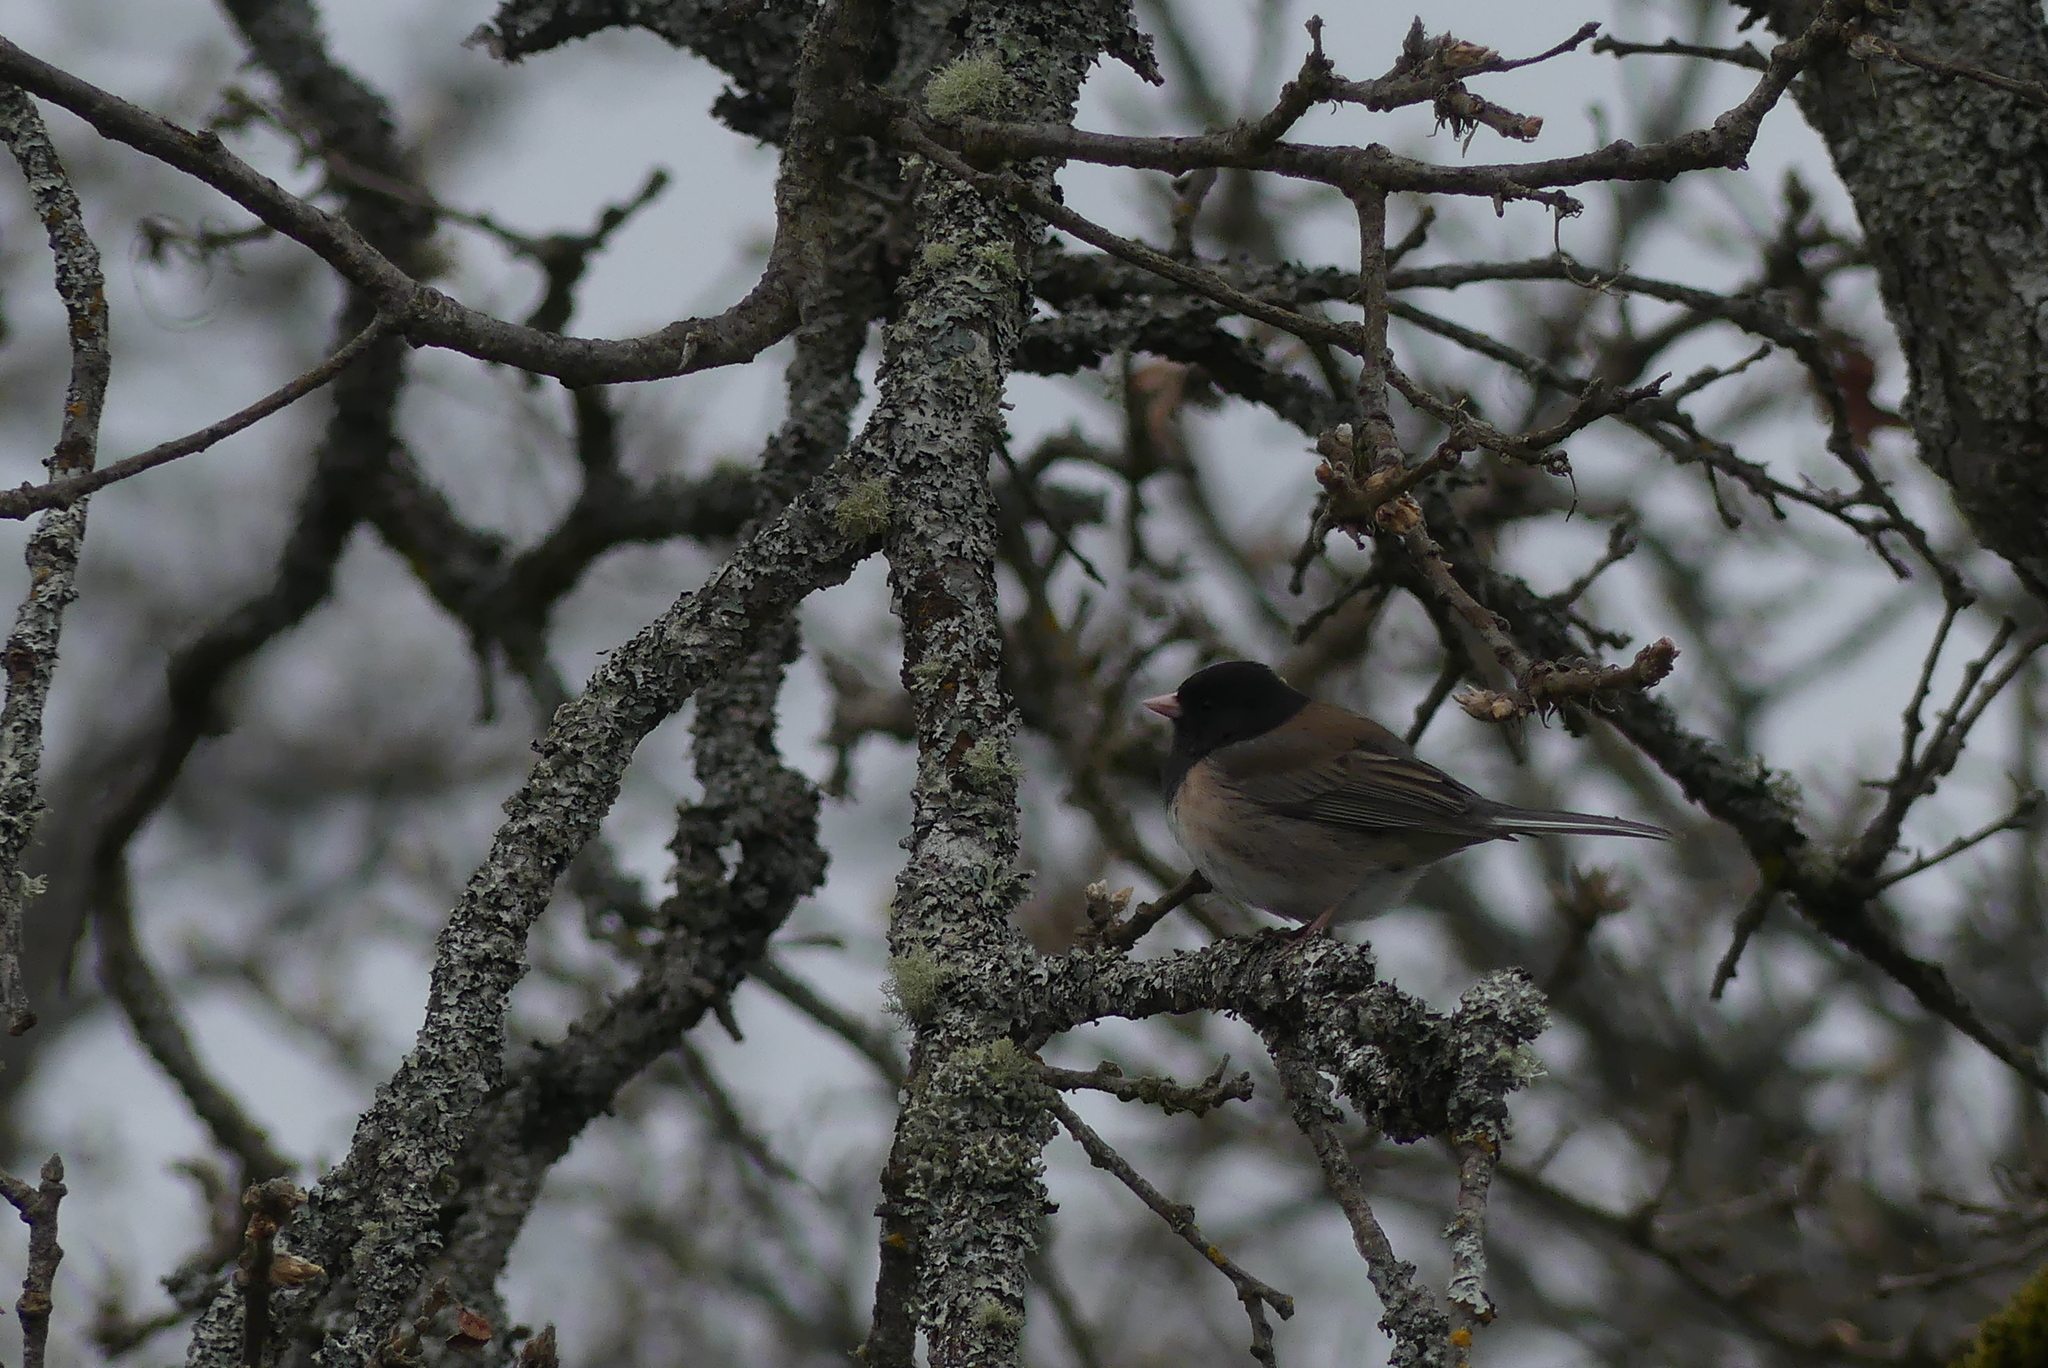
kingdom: Animalia
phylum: Chordata
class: Aves
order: Passeriformes
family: Passerellidae
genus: Junco
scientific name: Junco hyemalis
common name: Dark-eyed junco
